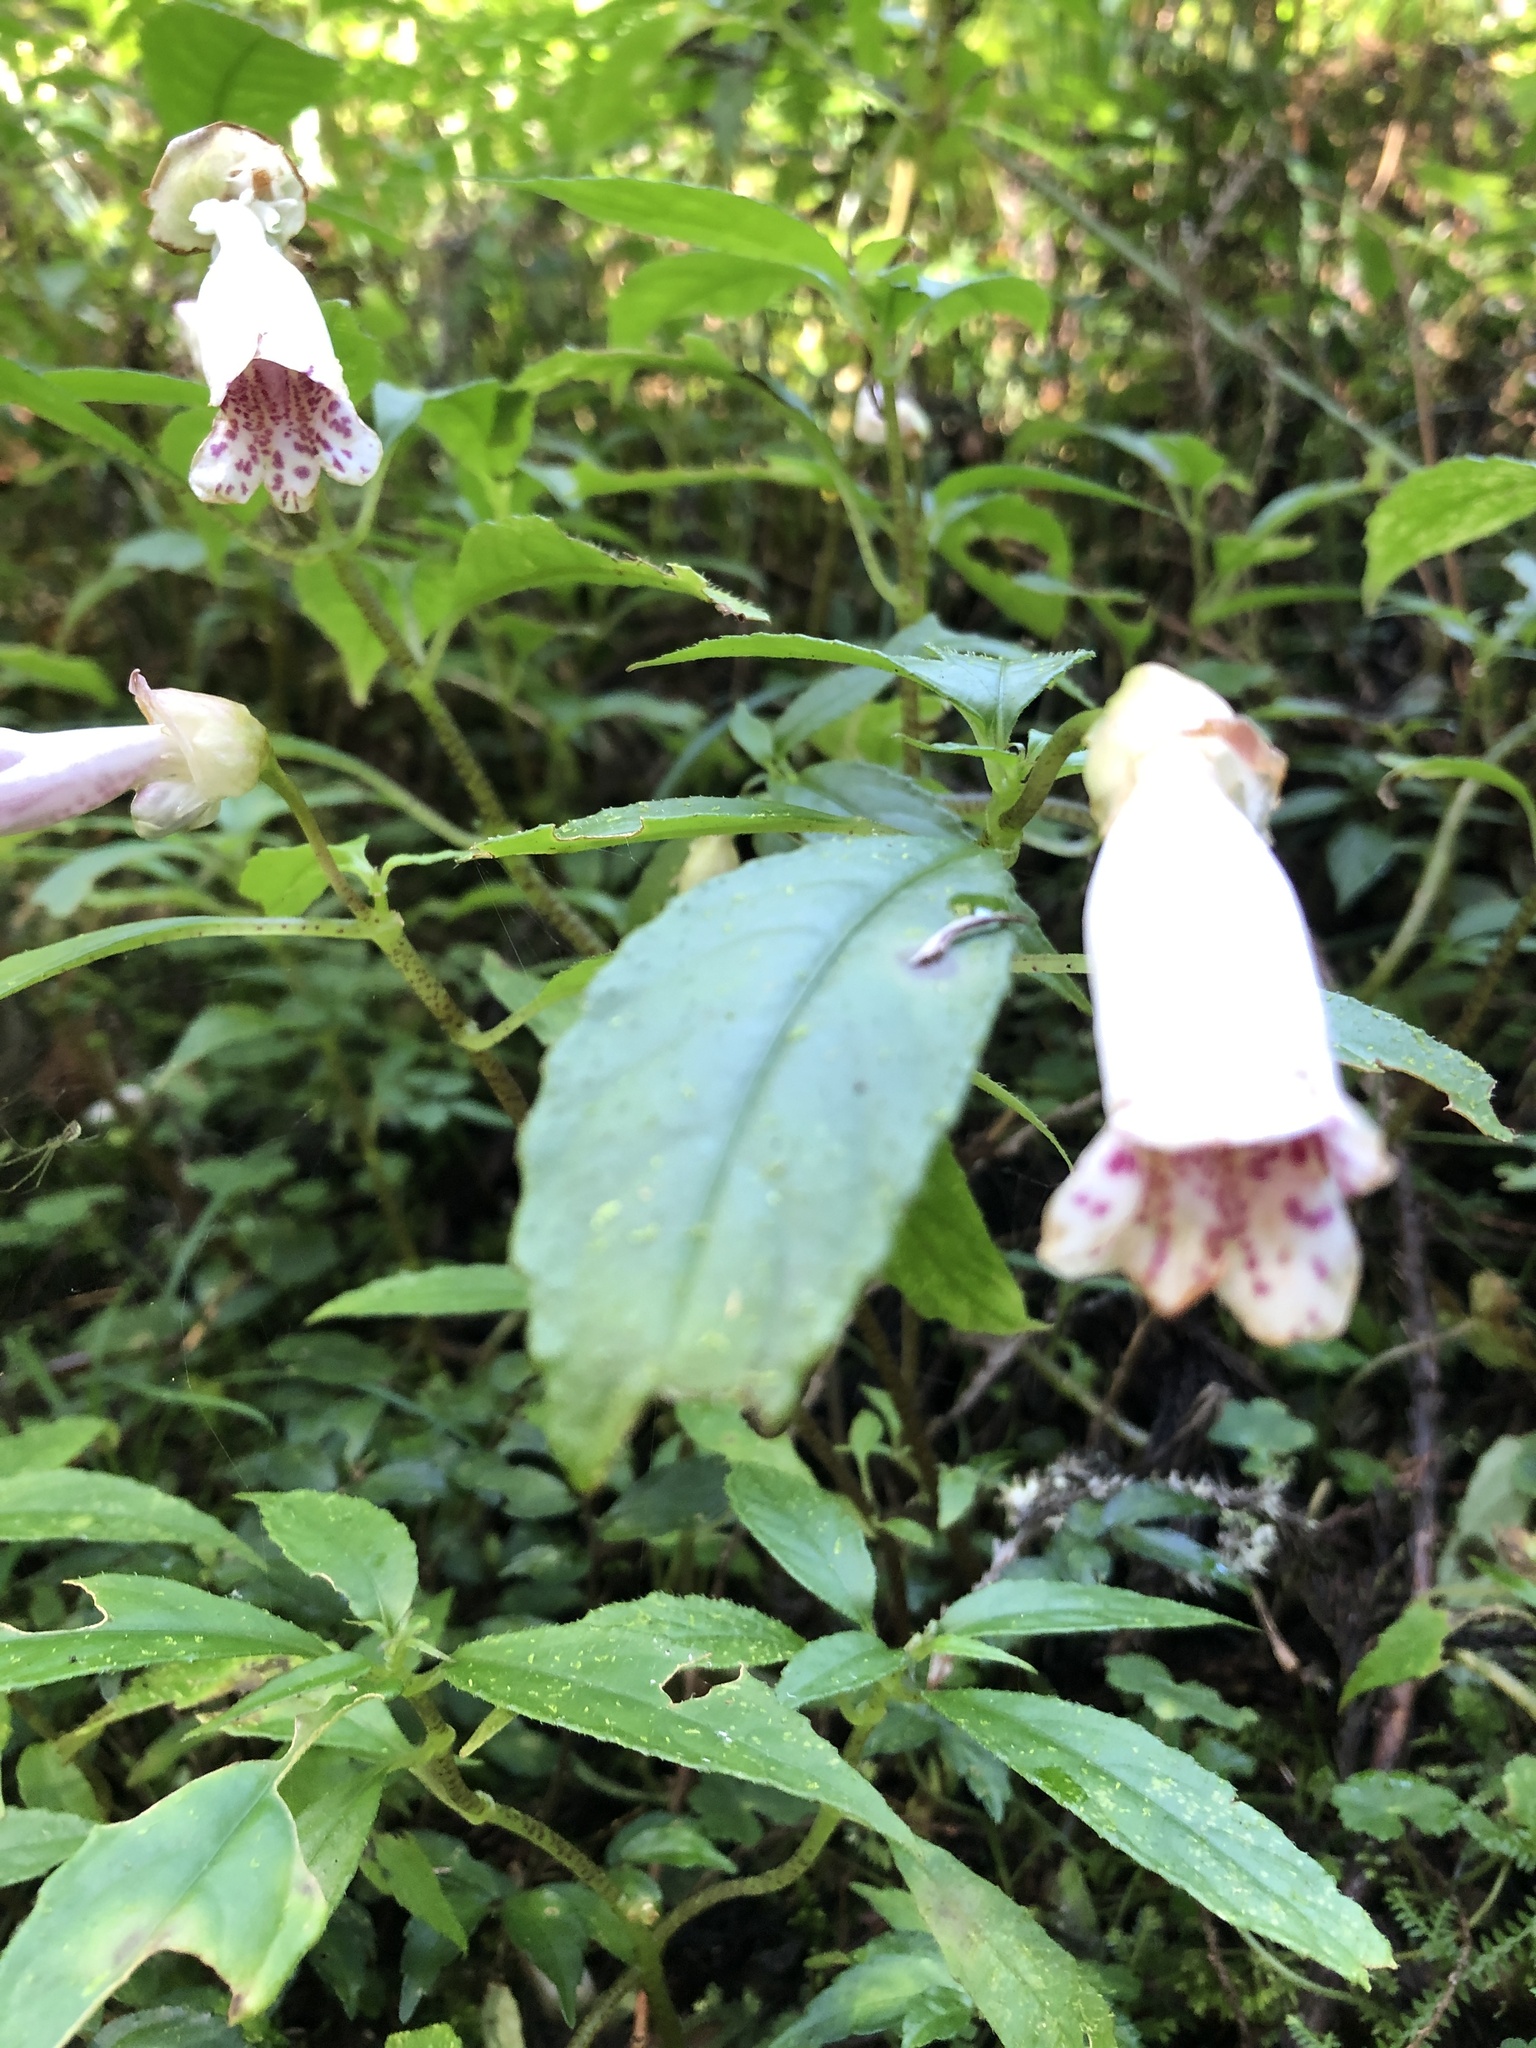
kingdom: Plantae
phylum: Tracheophyta
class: Magnoliopsida
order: Lamiales
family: Gesneriaceae
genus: Hemiboea
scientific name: Hemiboea bicornuta
